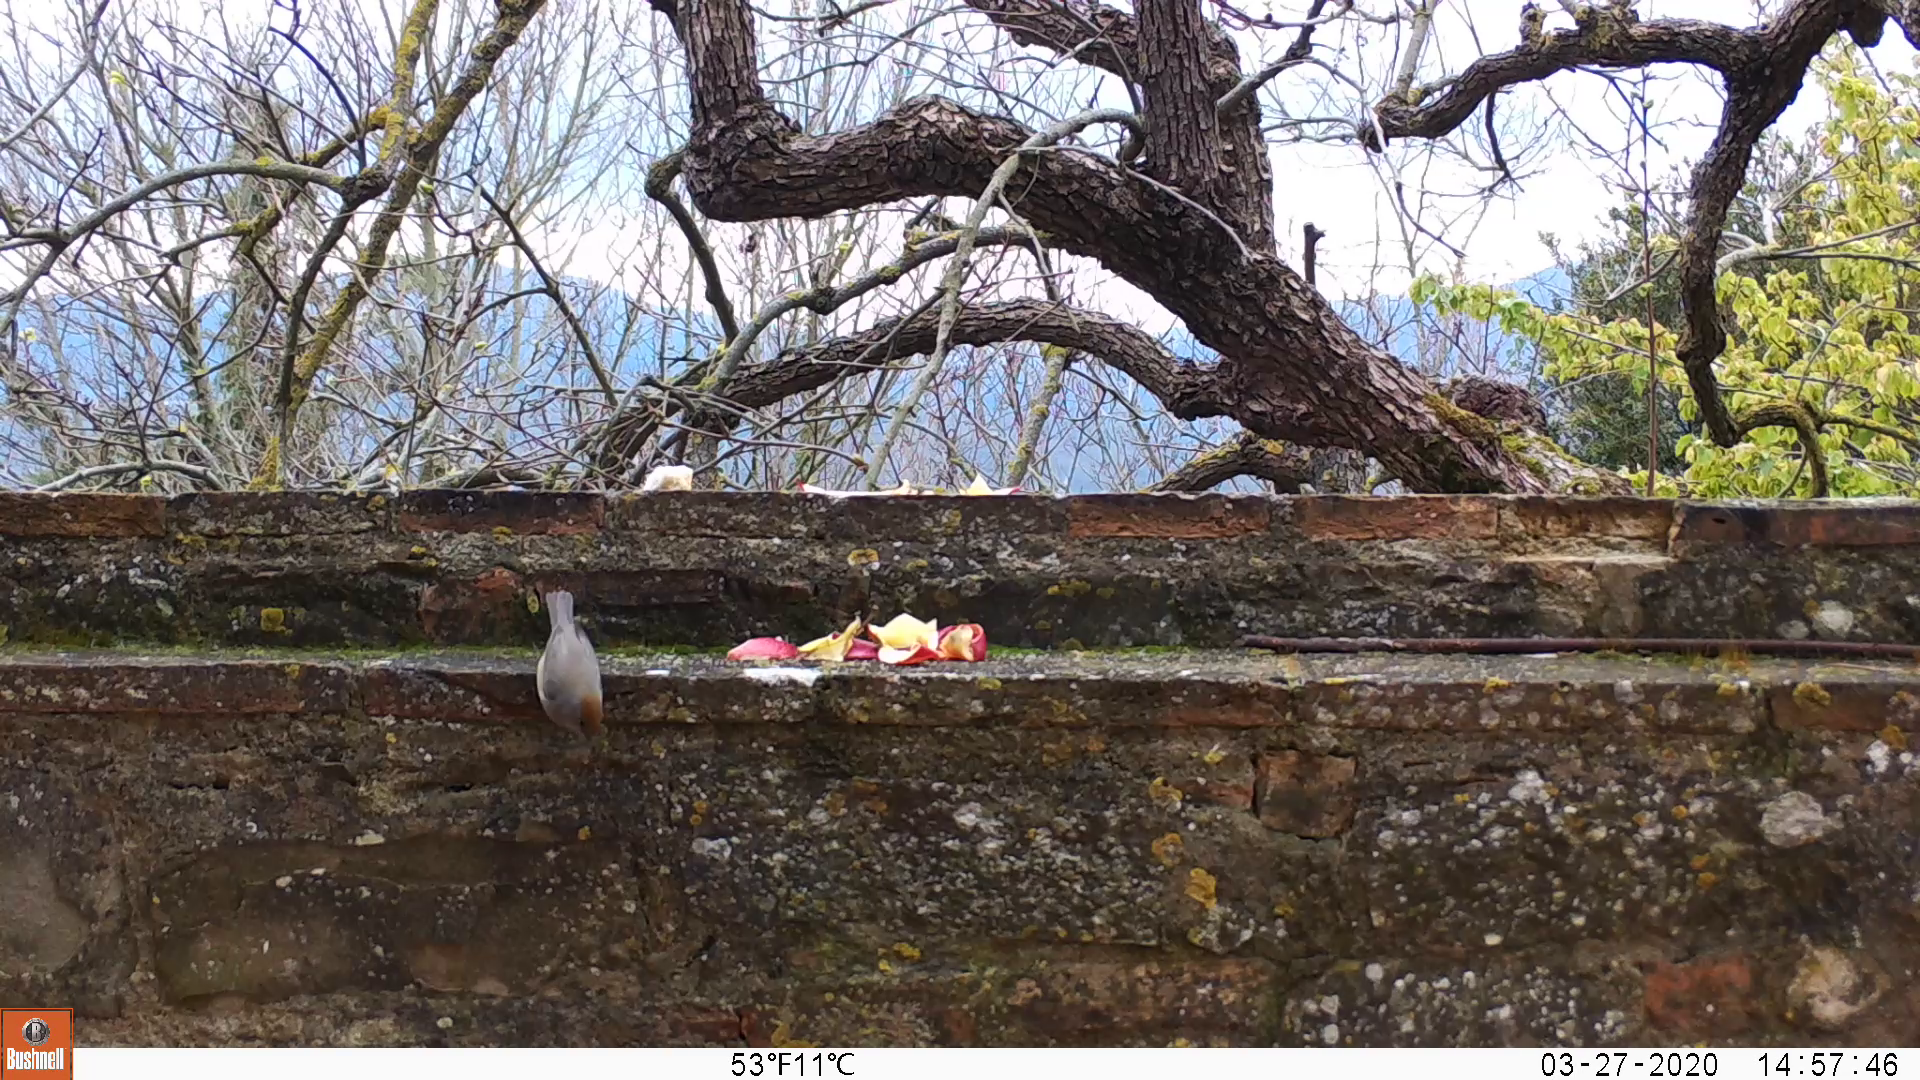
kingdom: Animalia
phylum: Chordata
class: Aves
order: Passeriformes
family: Sylviidae
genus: Sylvia
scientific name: Sylvia atricapilla
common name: Eurasian blackcap
